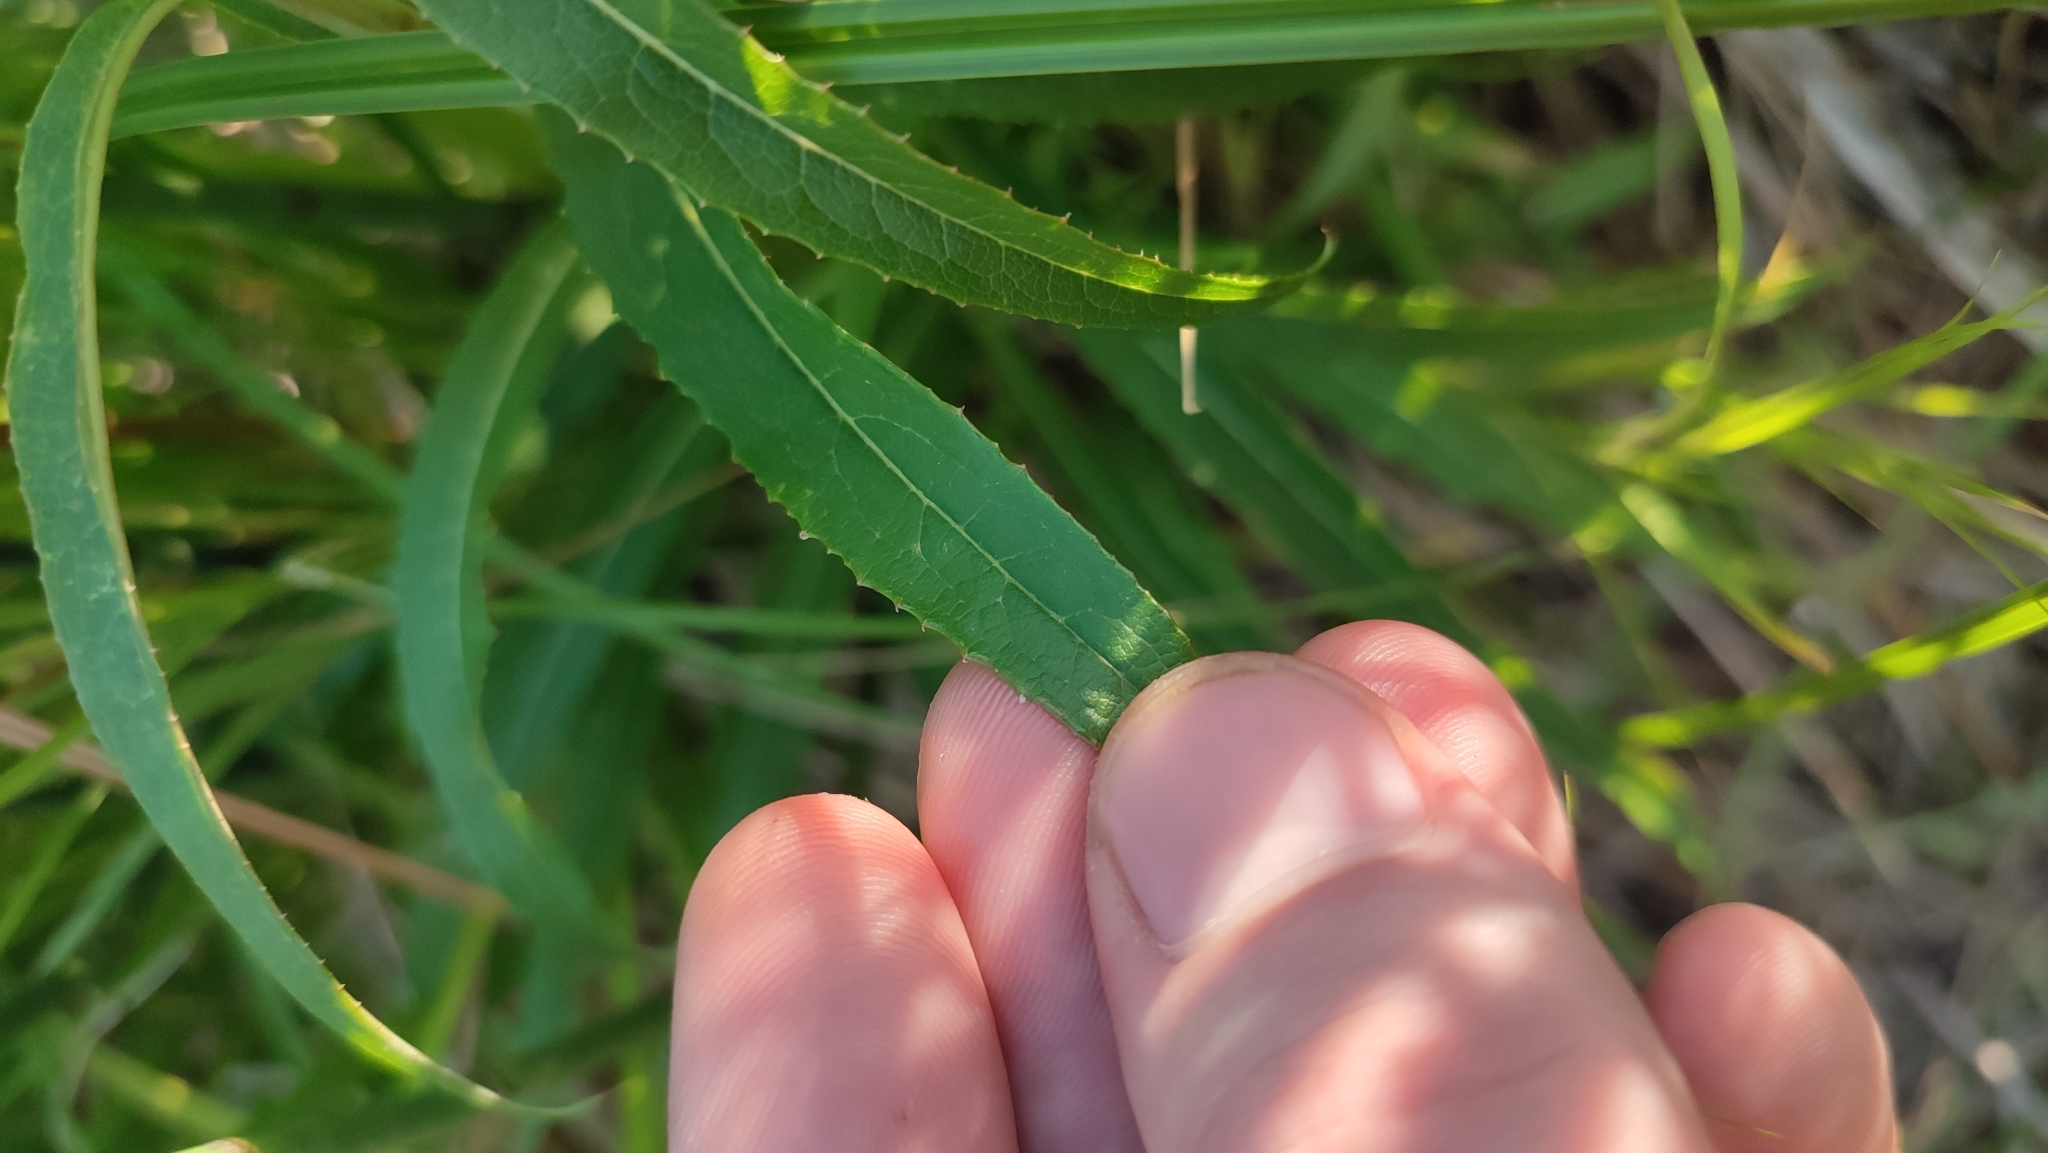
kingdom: Plantae
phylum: Tracheophyta
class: Magnoliopsida
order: Asterales
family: Asteraceae
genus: Lactuca
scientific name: Lactuca sibirica
